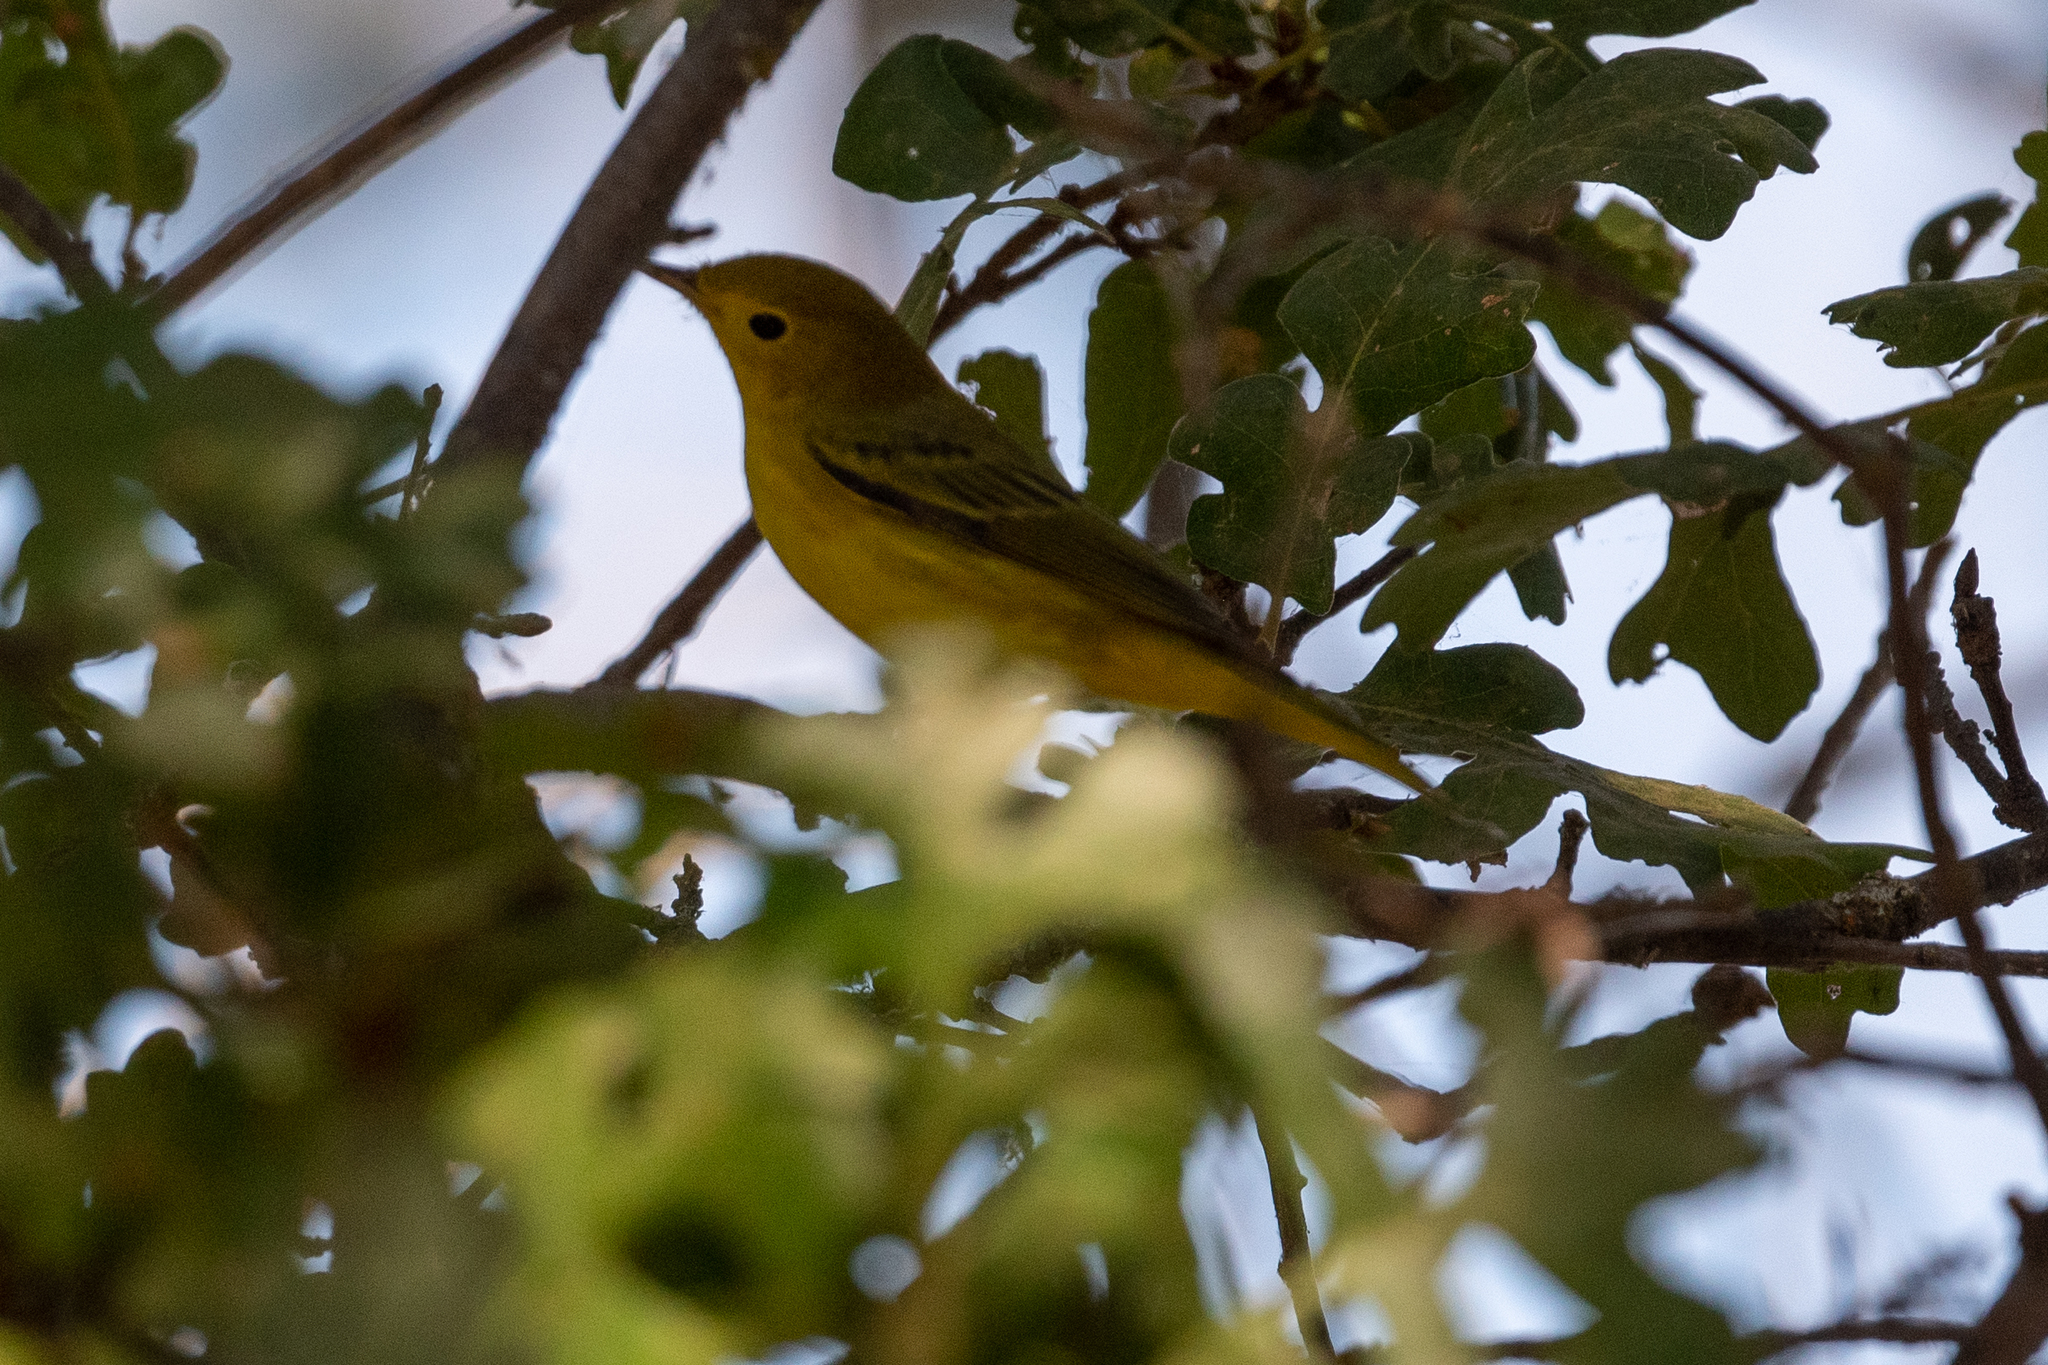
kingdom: Animalia
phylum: Chordata
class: Aves
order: Passeriformes
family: Parulidae
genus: Setophaga
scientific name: Setophaga petechia
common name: Yellow warbler
